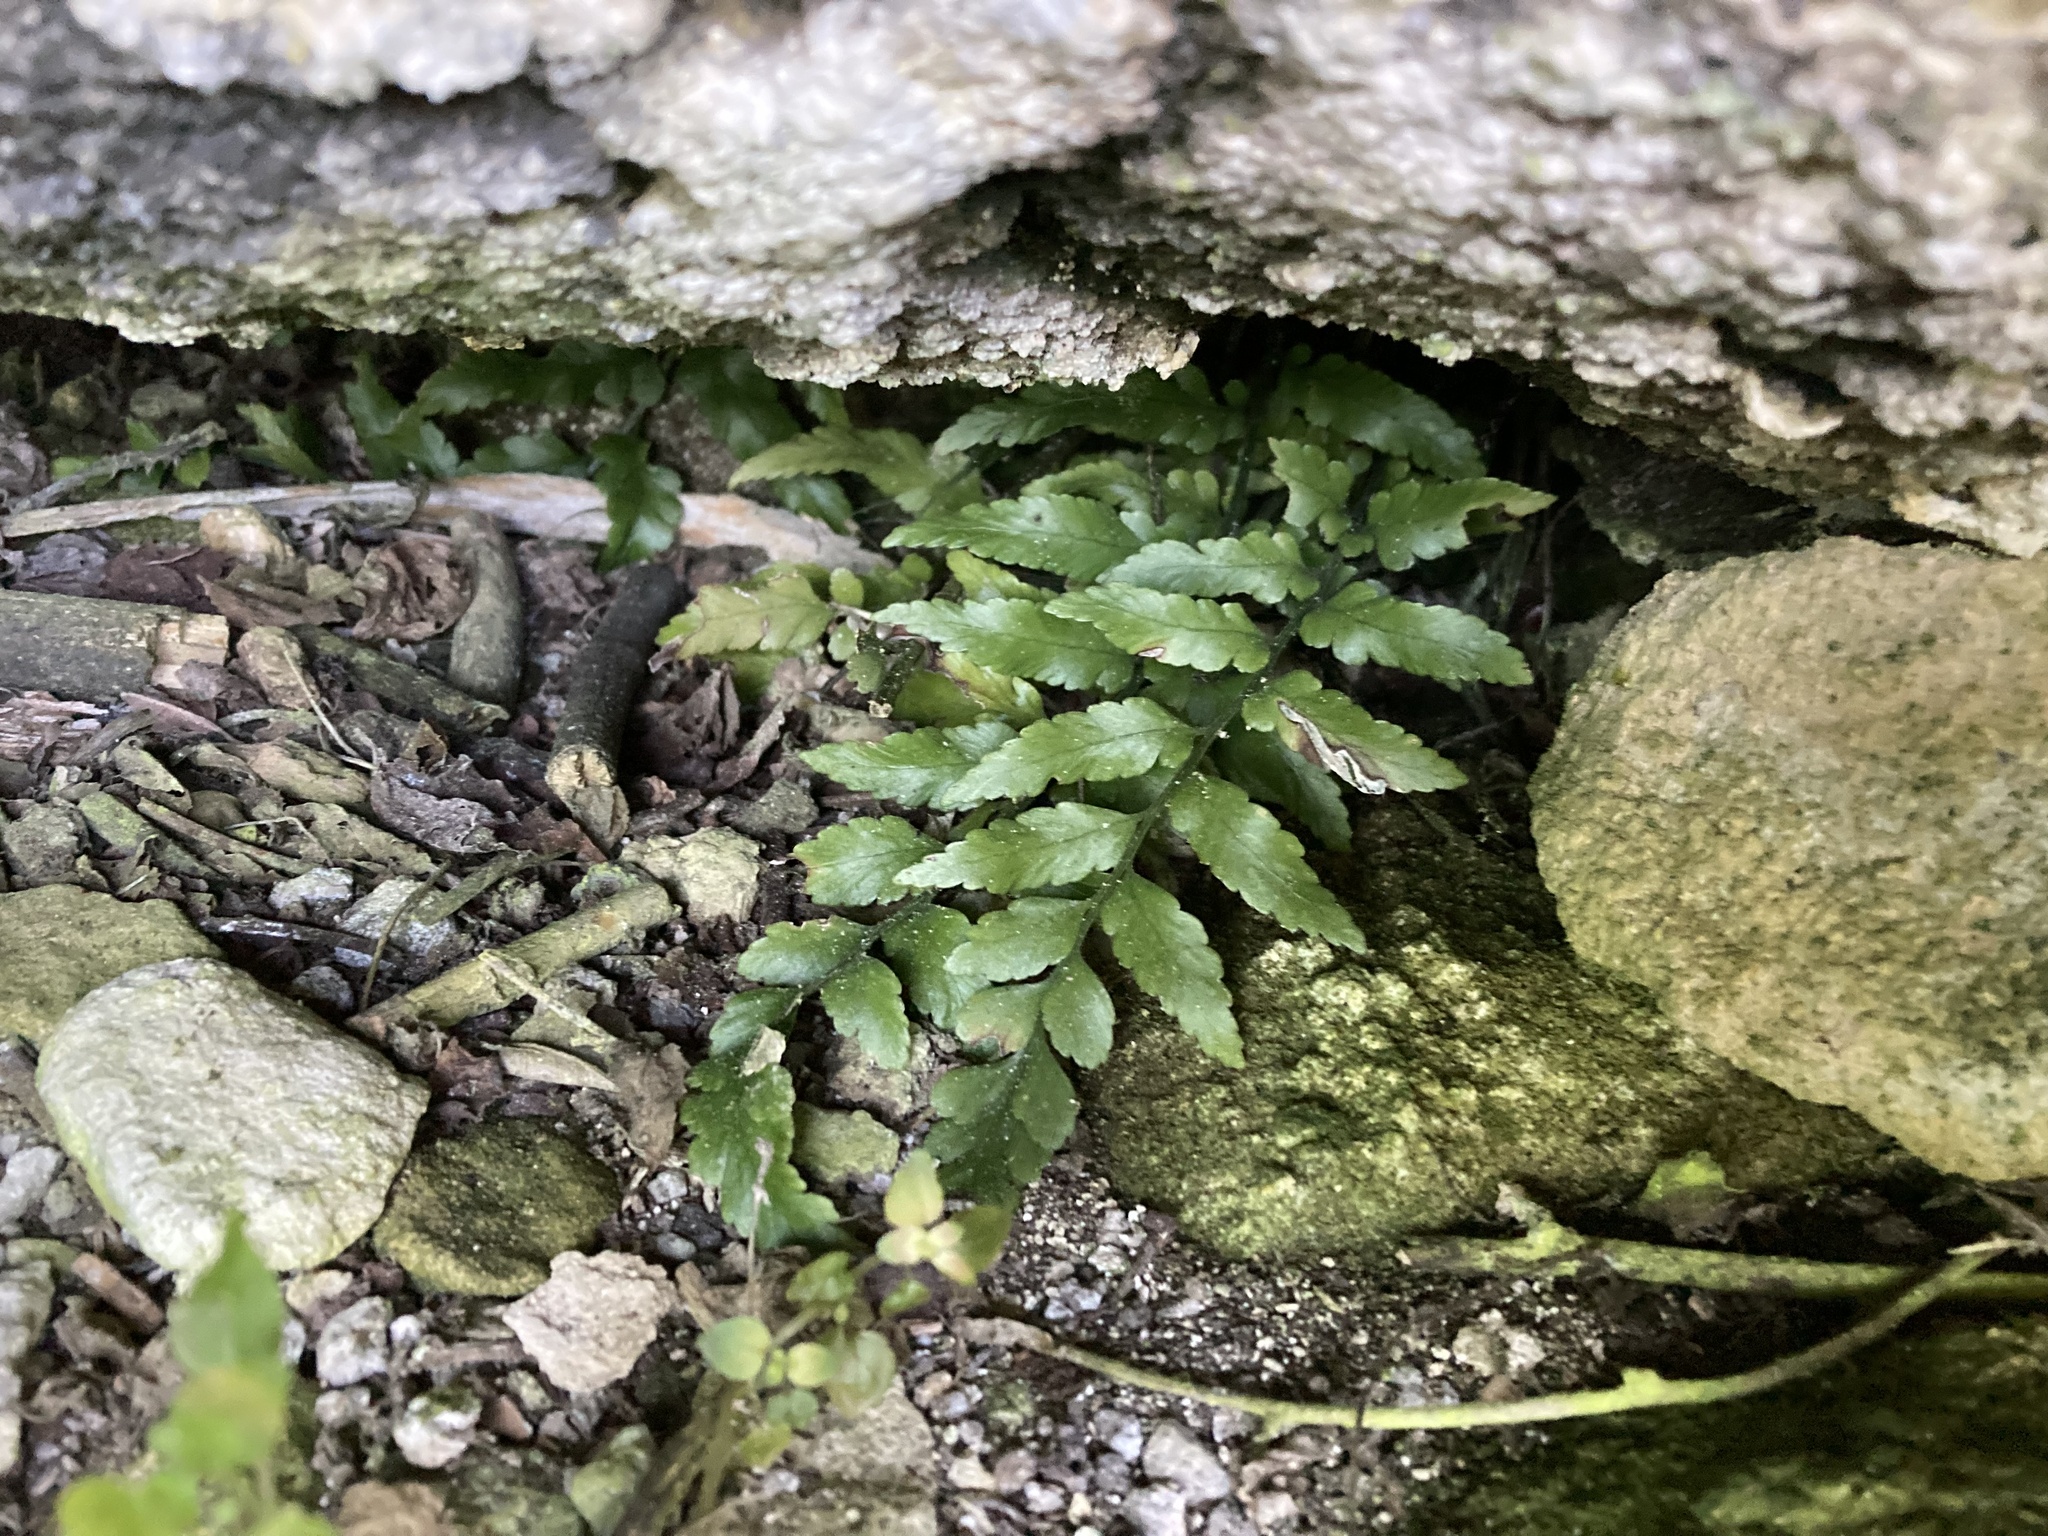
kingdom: Plantae
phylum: Tracheophyta
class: Polypodiopsida
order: Polypodiales
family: Aspleniaceae
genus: Asplenium
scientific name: Asplenium lyallii
